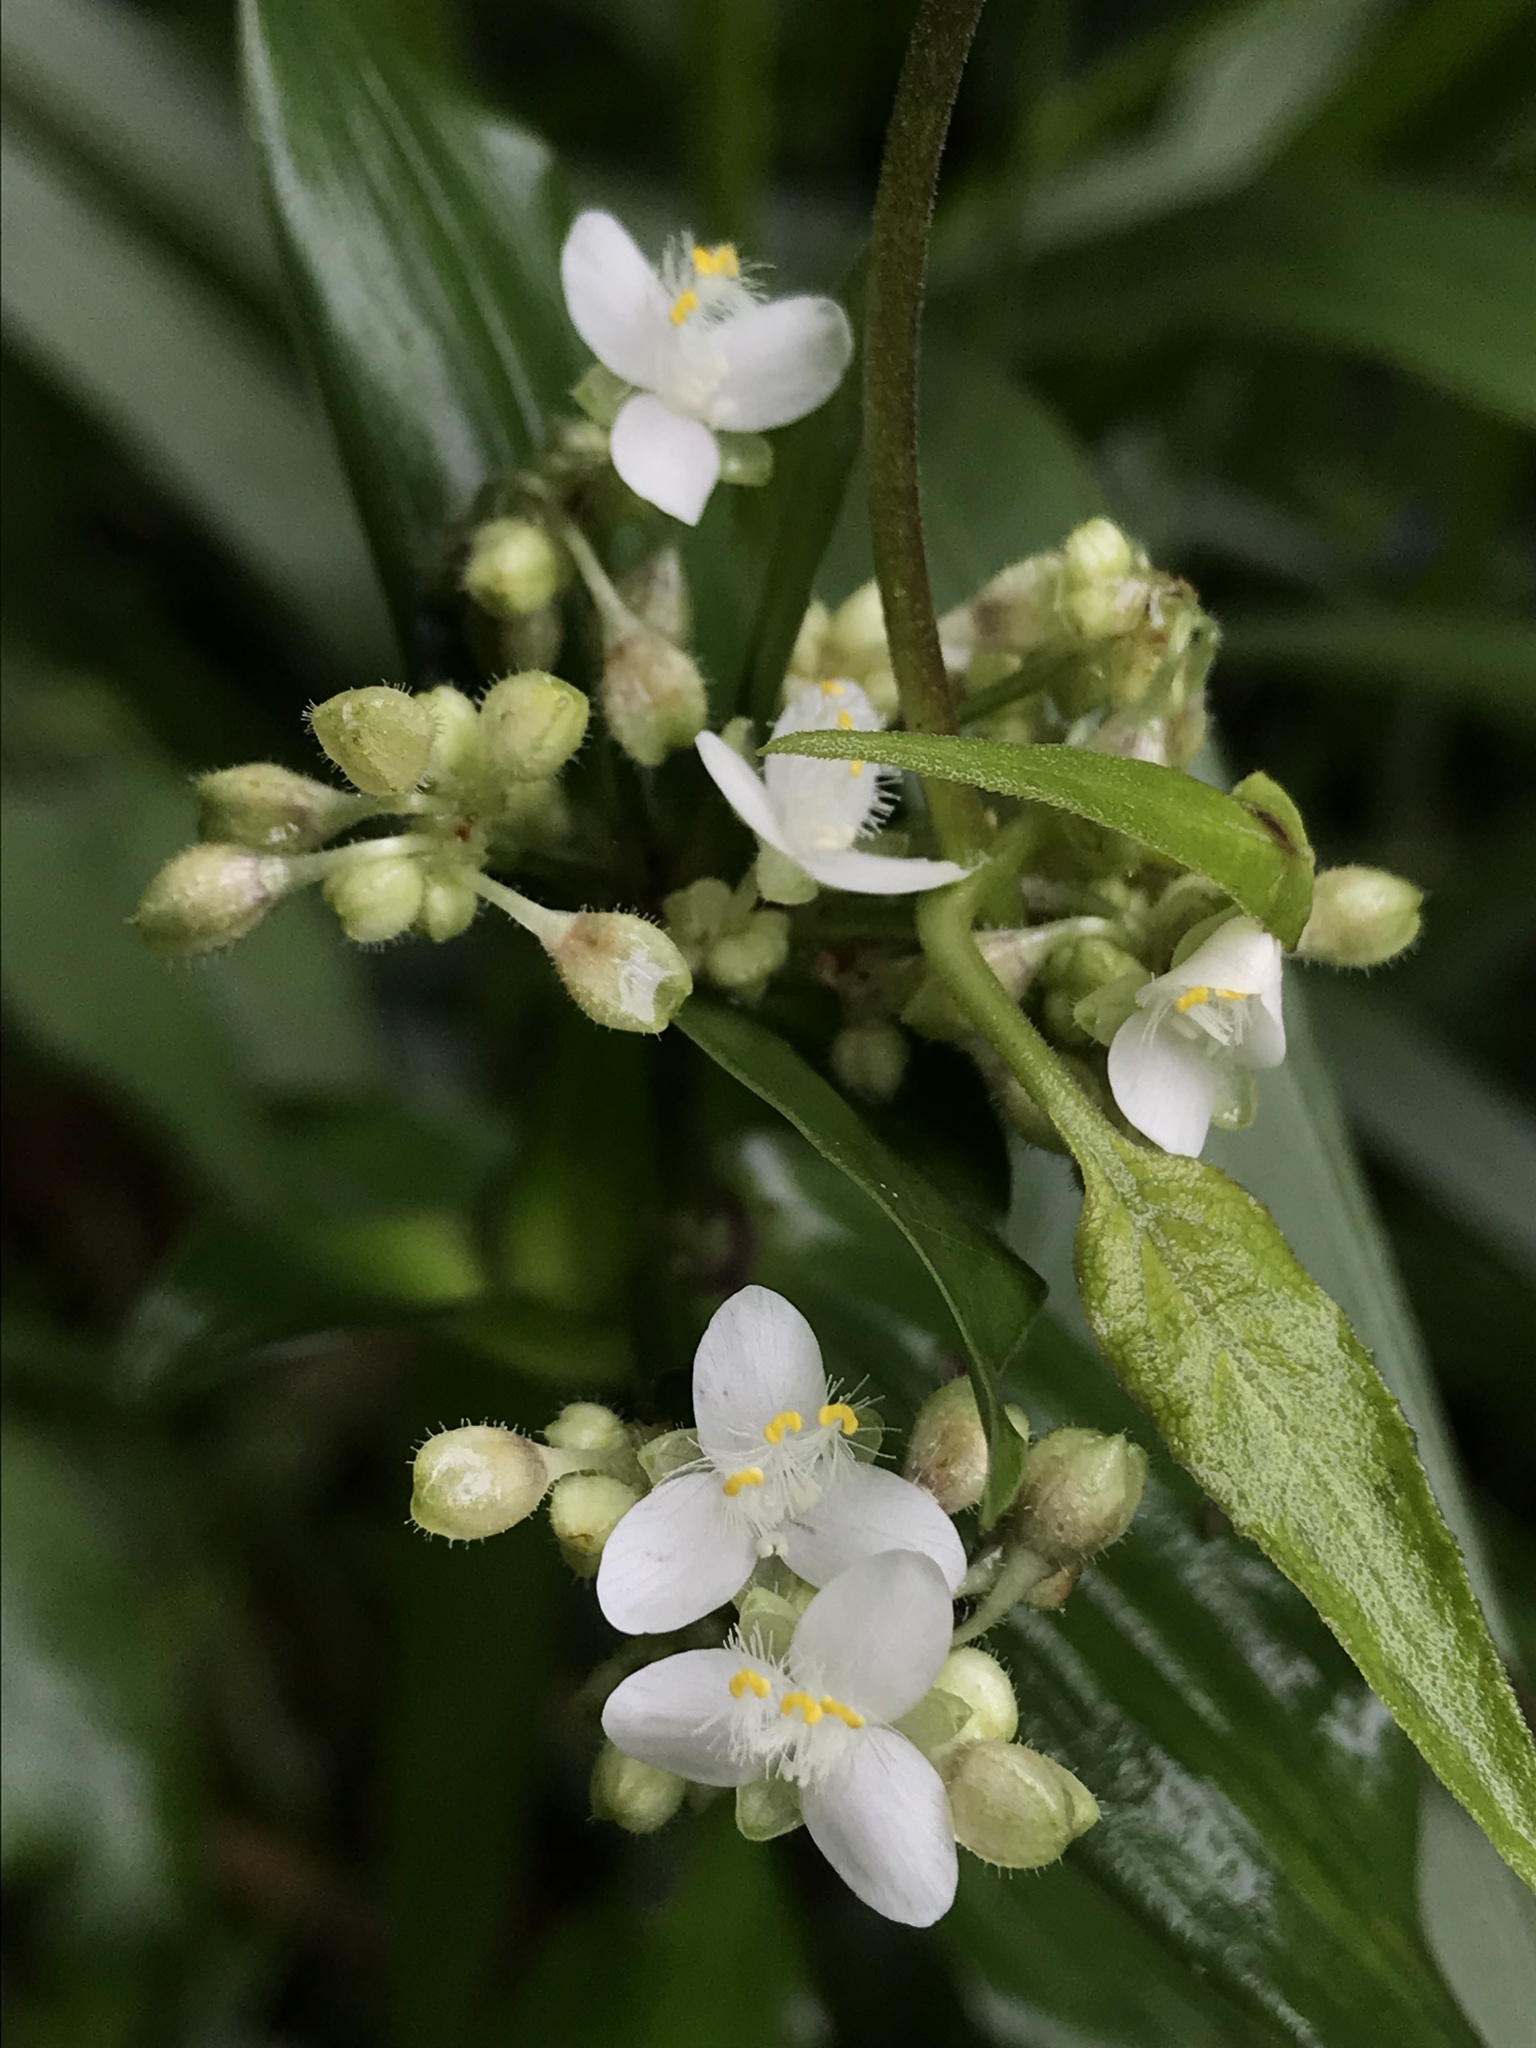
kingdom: Plantae
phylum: Tracheophyta
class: Liliopsida
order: Commelinales
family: Commelinaceae
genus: Callisia
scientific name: Callisia serrulata
